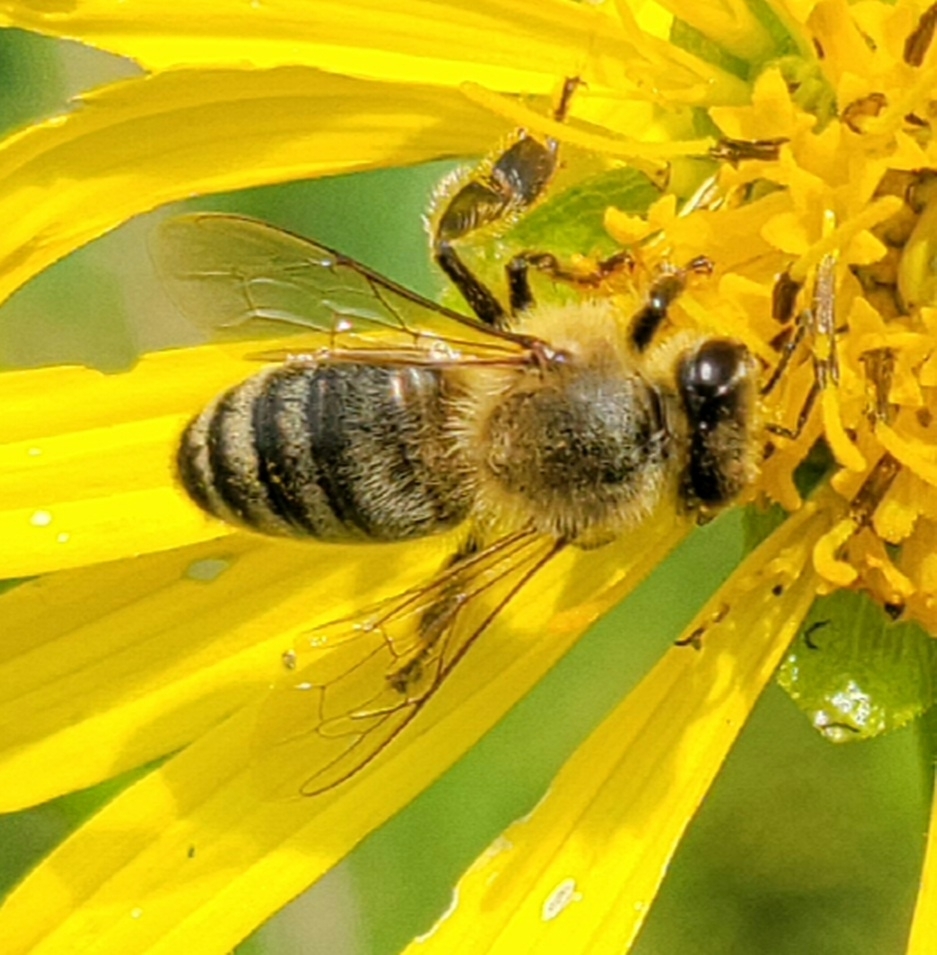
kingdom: Animalia
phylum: Arthropoda
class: Insecta
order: Hymenoptera
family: Apidae
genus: Apis
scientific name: Apis mellifera
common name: Honey bee
